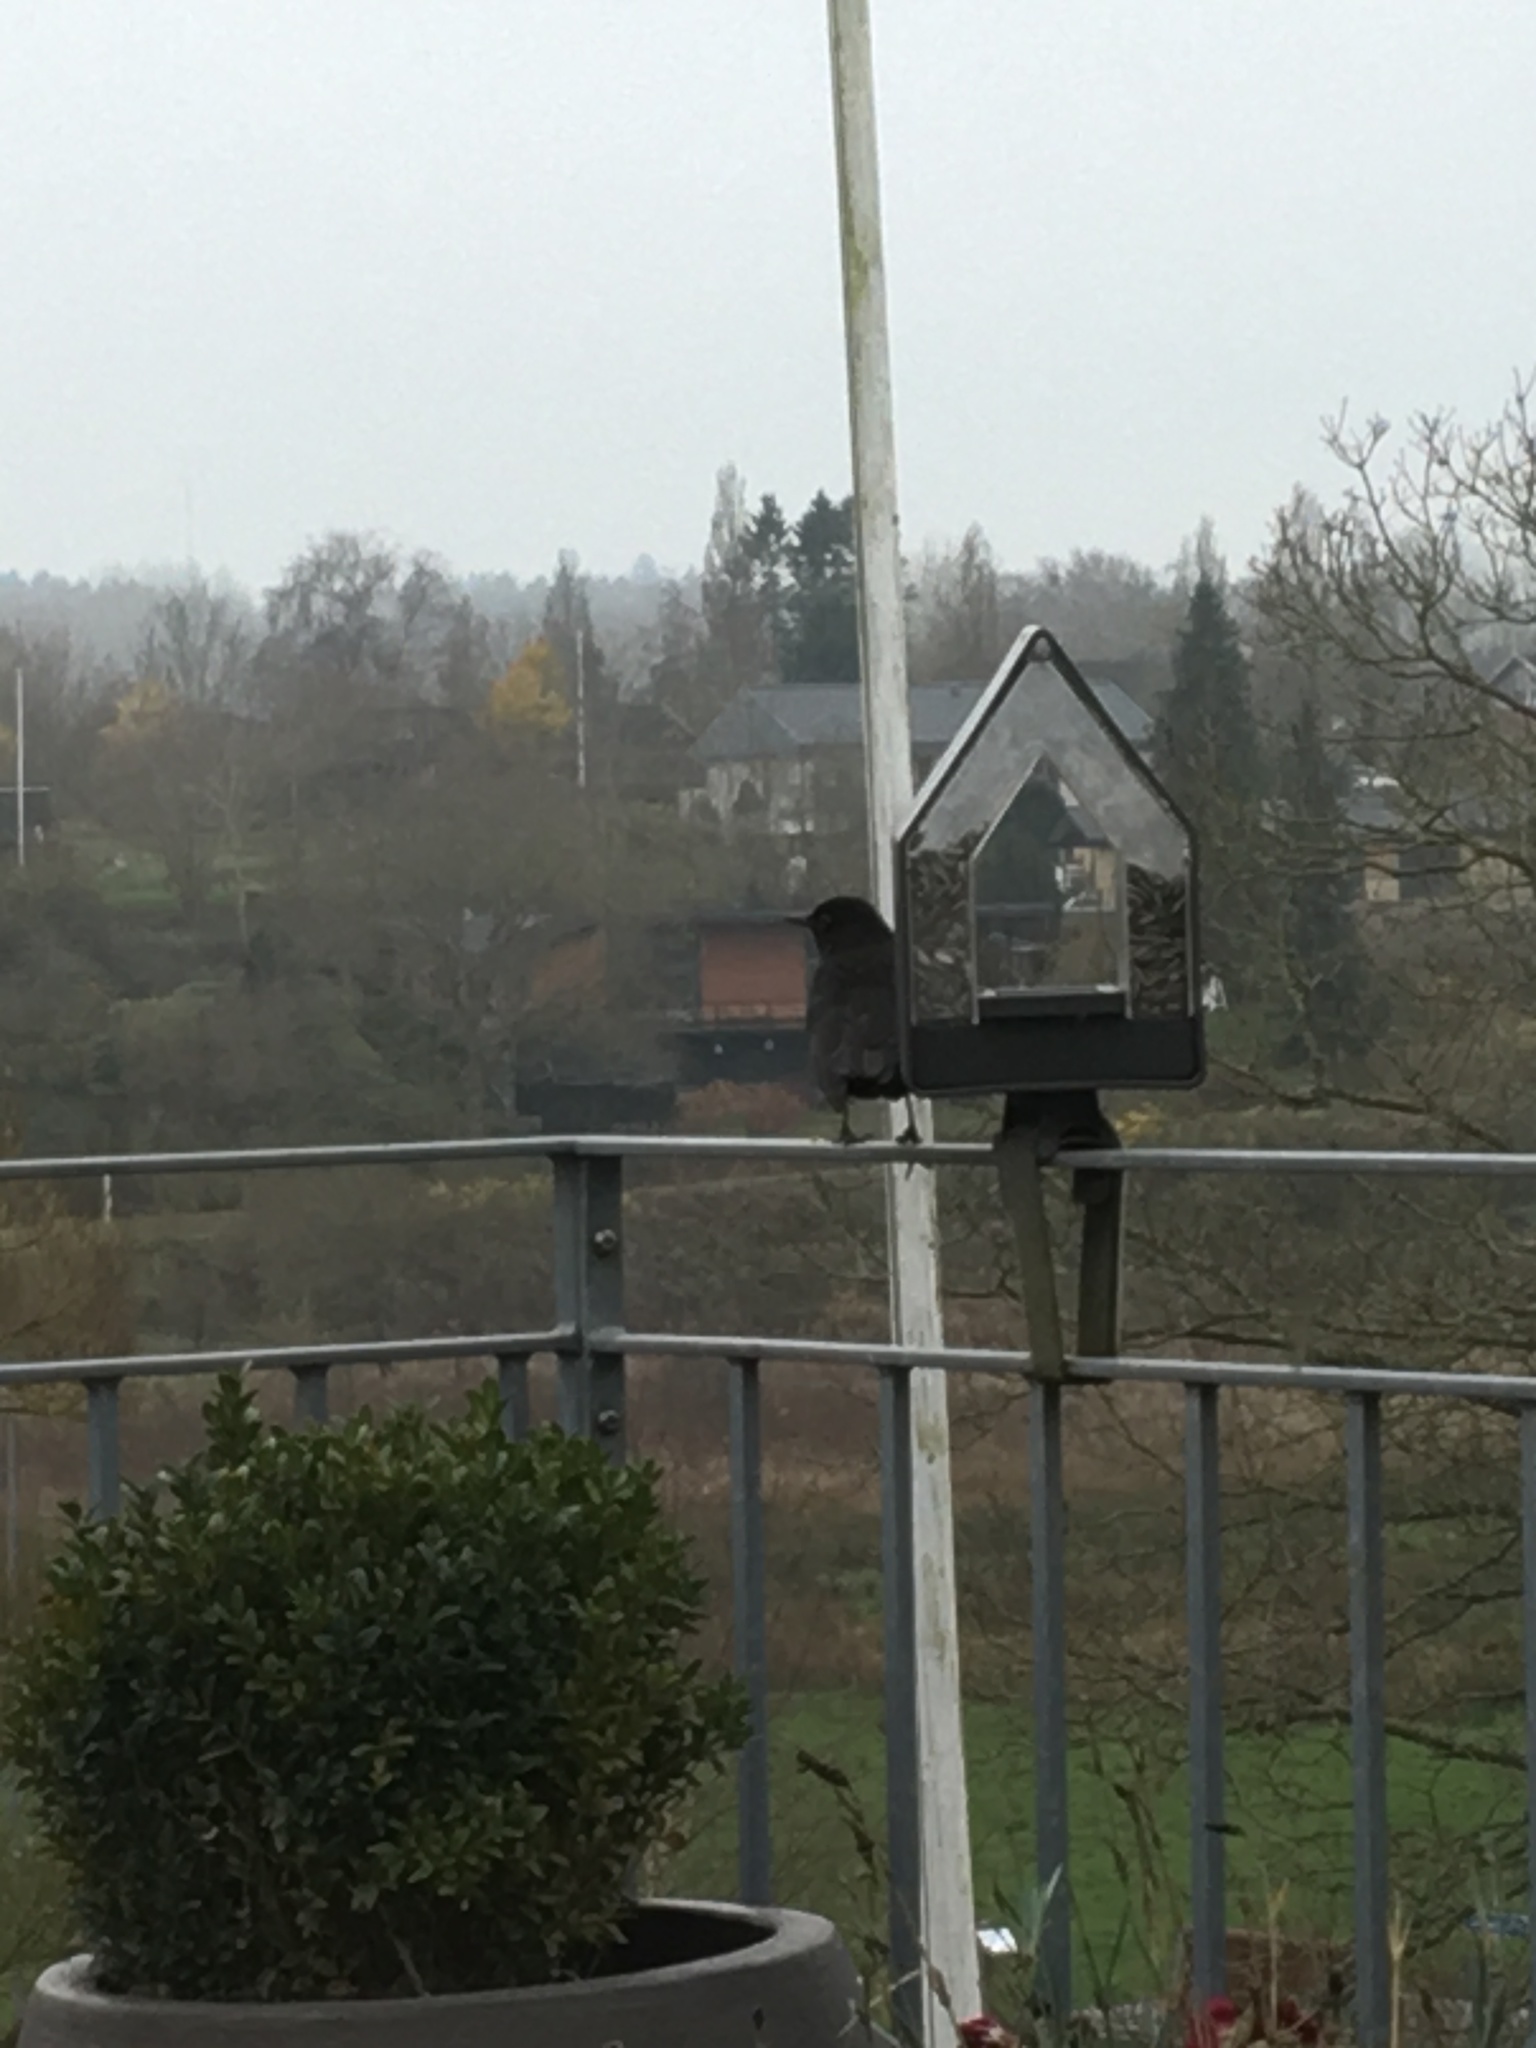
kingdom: Animalia
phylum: Chordata
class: Aves
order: Passeriformes
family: Turdidae
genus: Turdus
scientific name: Turdus merula
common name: Common blackbird
